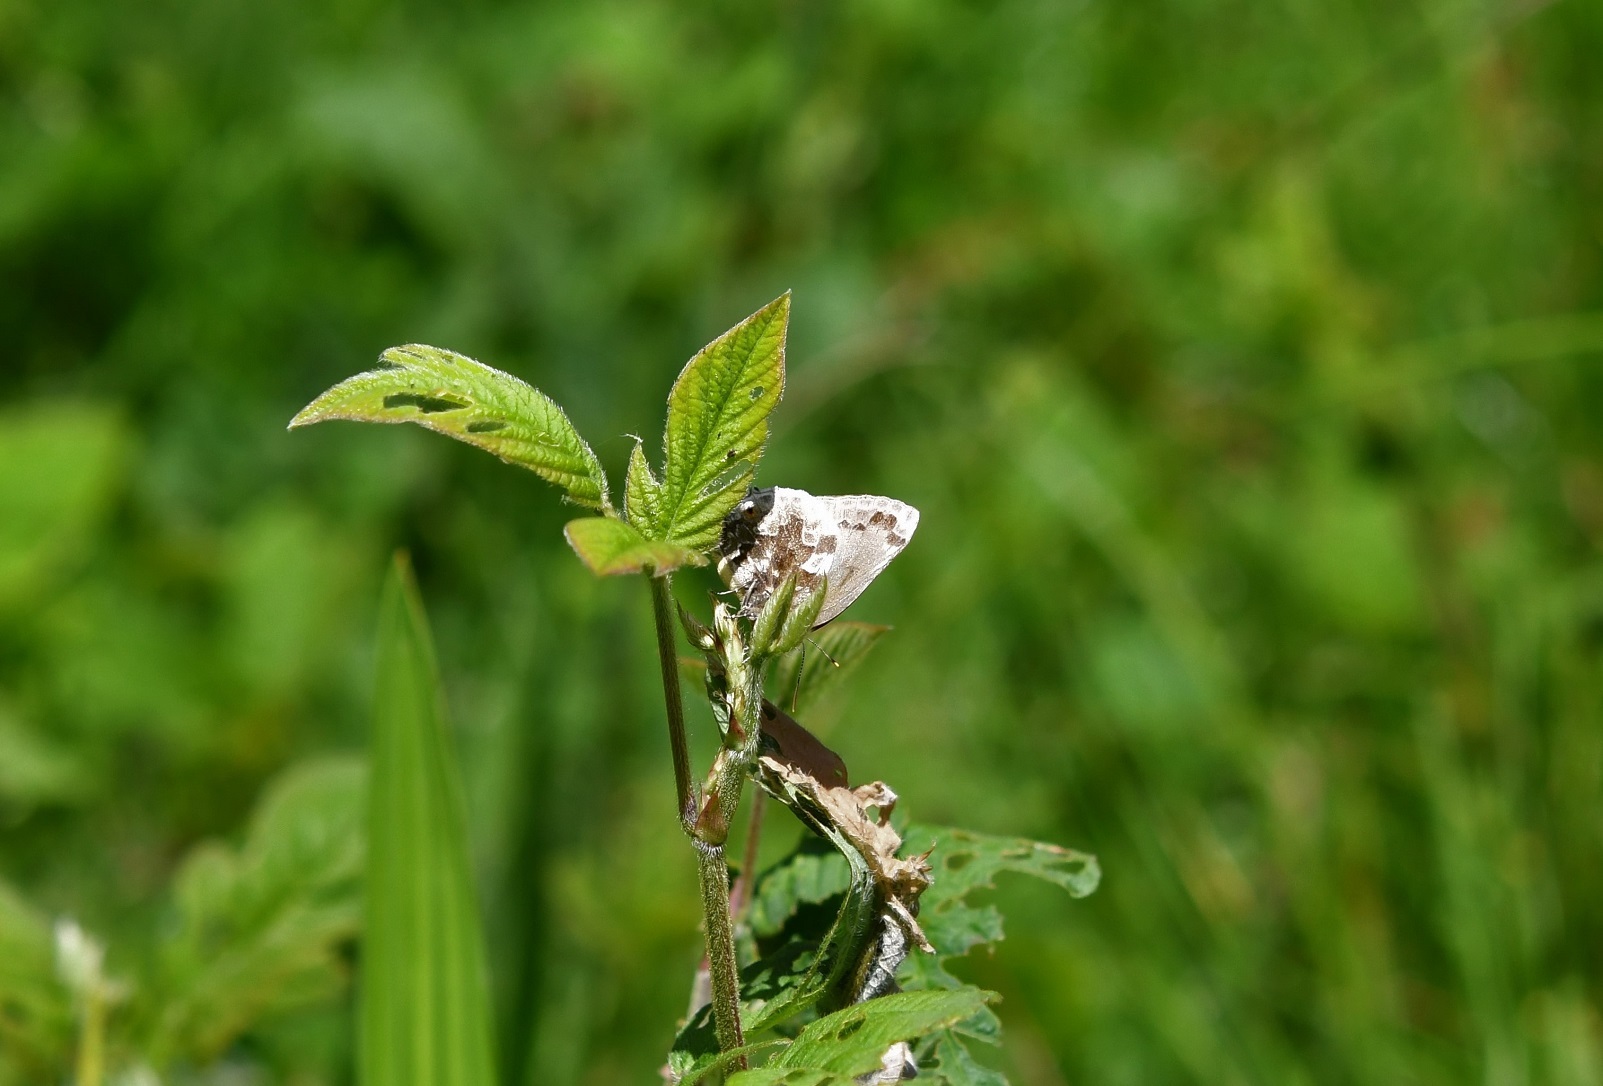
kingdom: Animalia
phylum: Arthropoda
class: Insecta
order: Lepidoptera
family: Lycaenidae
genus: Michaelus
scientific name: Michaelus jebus
